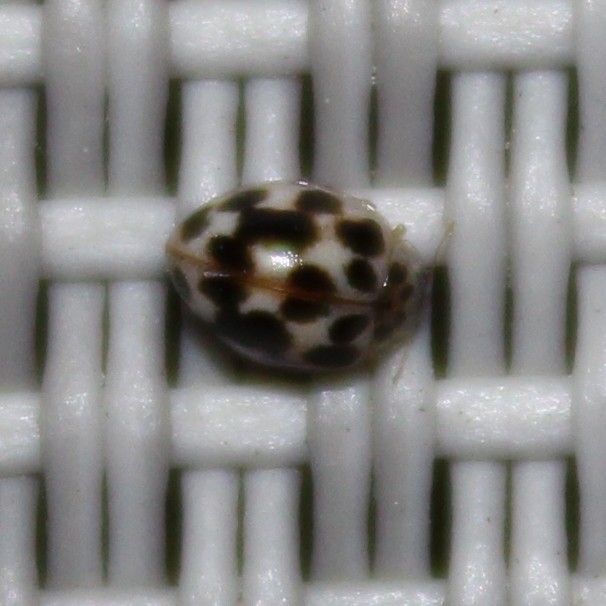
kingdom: Animalia
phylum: Arthropoda
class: Insecta
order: Coleoptera
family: Coccinellidae
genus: Psyllobora
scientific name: Psyllobora vigintimaculata
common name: Ladybird beetle
